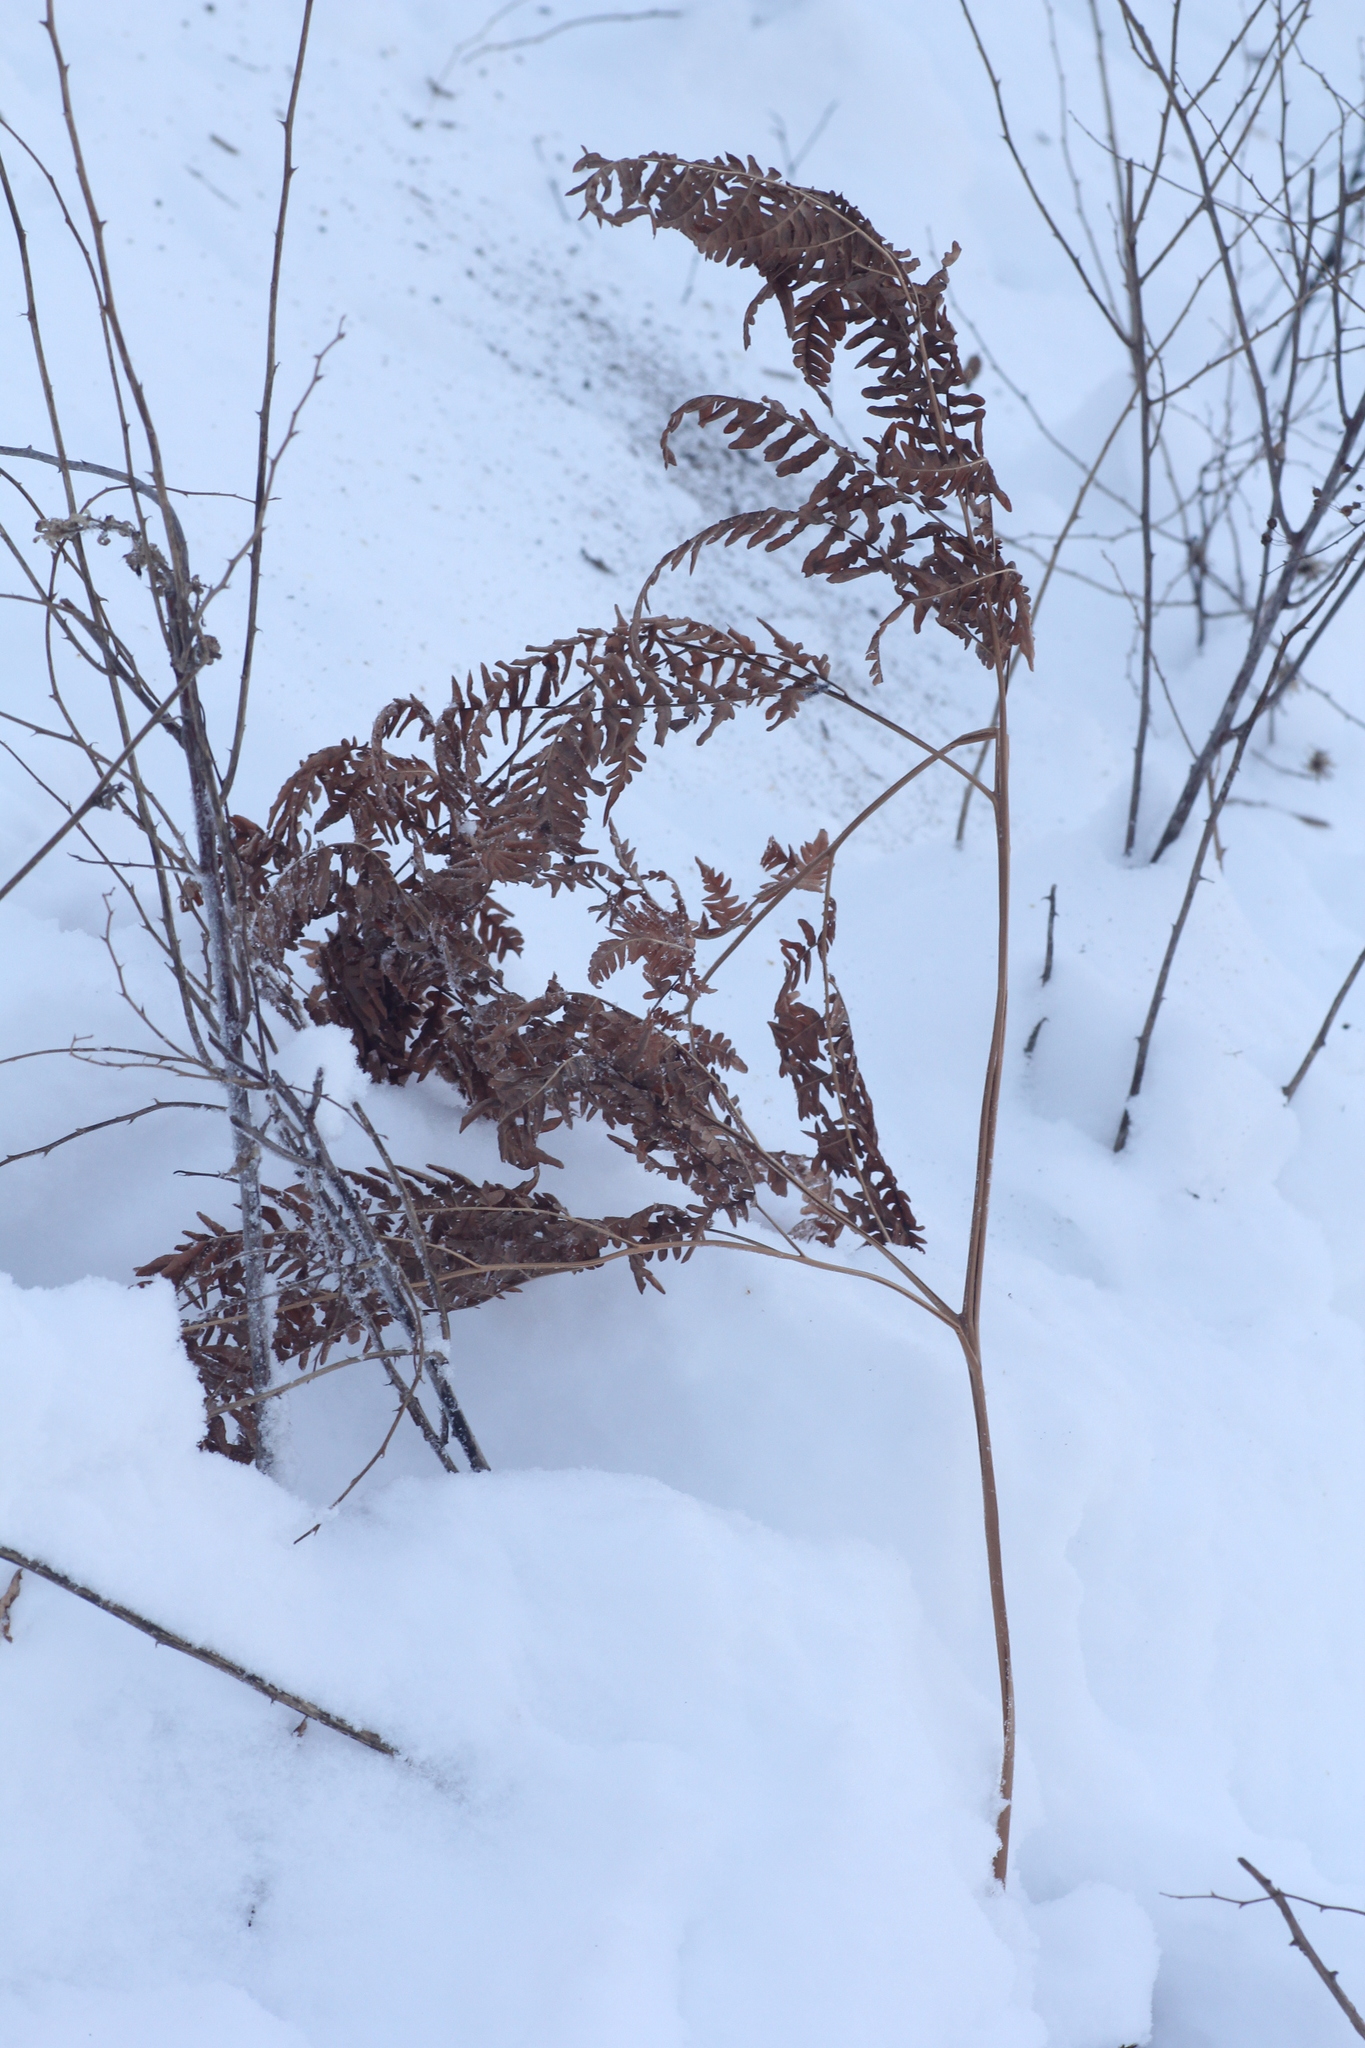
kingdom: Plantae
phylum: Tracheophyta
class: Polypodiopsida
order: Polypodiales
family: Dennstaedtiaceae
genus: Pteridium
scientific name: Pteridium aquilinum
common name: Bracken
